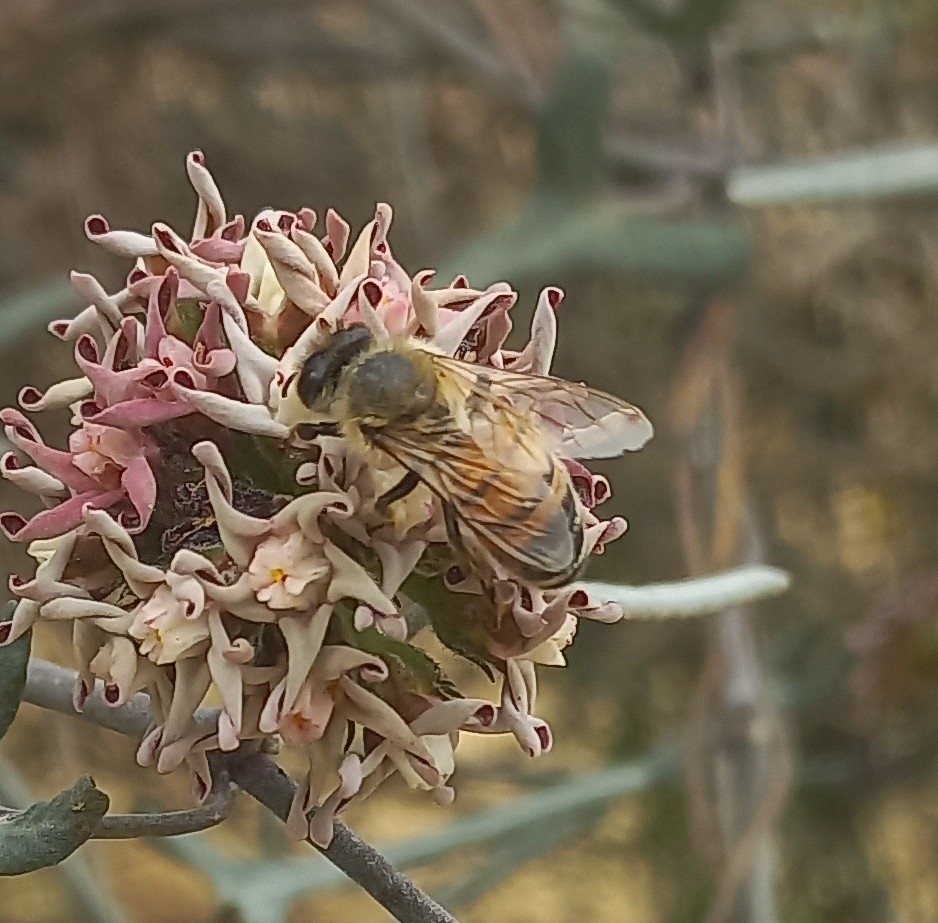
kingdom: Animalia
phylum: Arthropoda
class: Insecta
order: Hymenoptera
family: Apidae
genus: Apis
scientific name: Apis mellifera
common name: Honey bee
